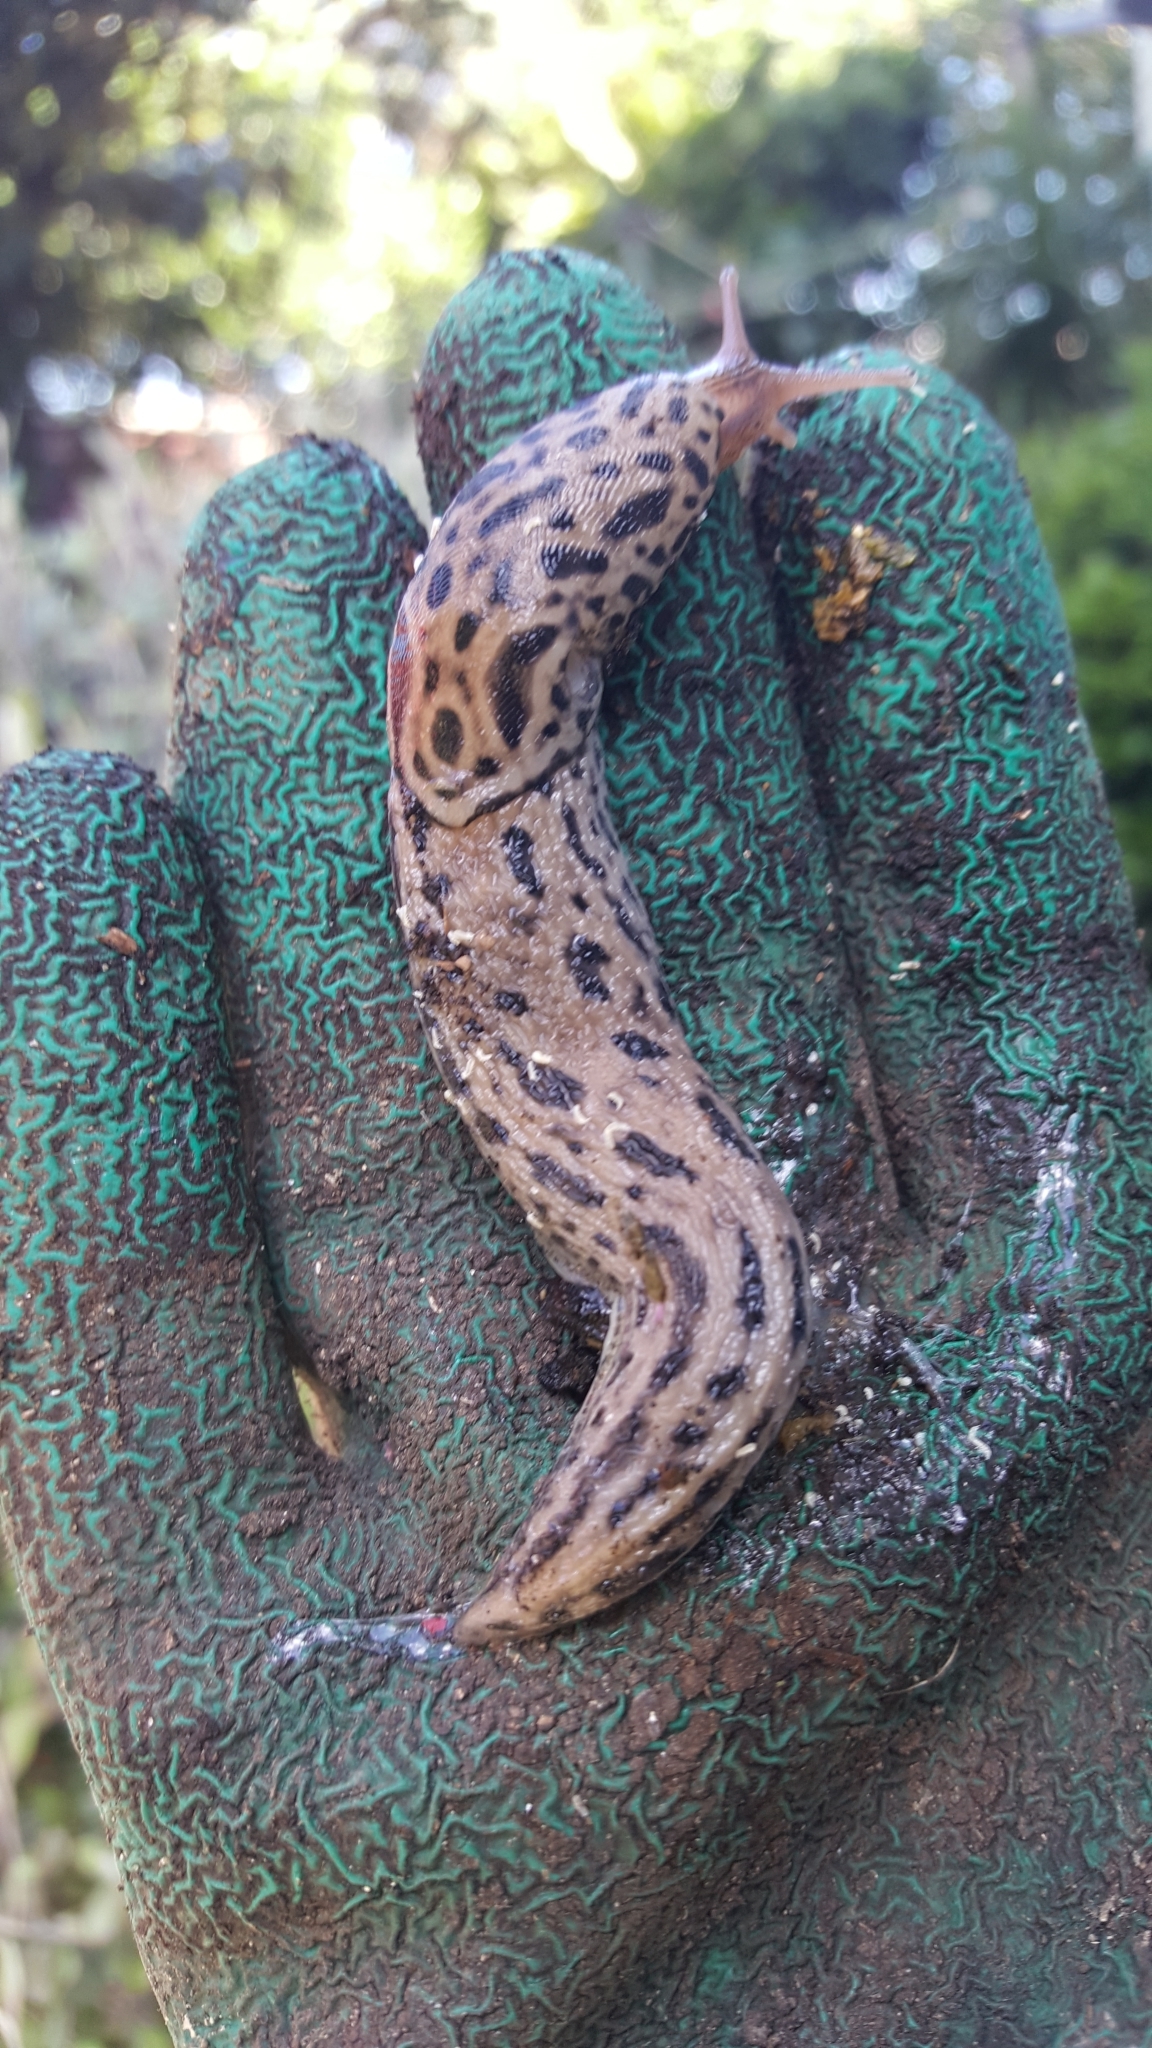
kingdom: Animalia
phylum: Mollusca
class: Gastropoda
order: Stylommatophora
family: Limacidae
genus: Limax
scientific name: Limax maximus
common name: Great grey slug
